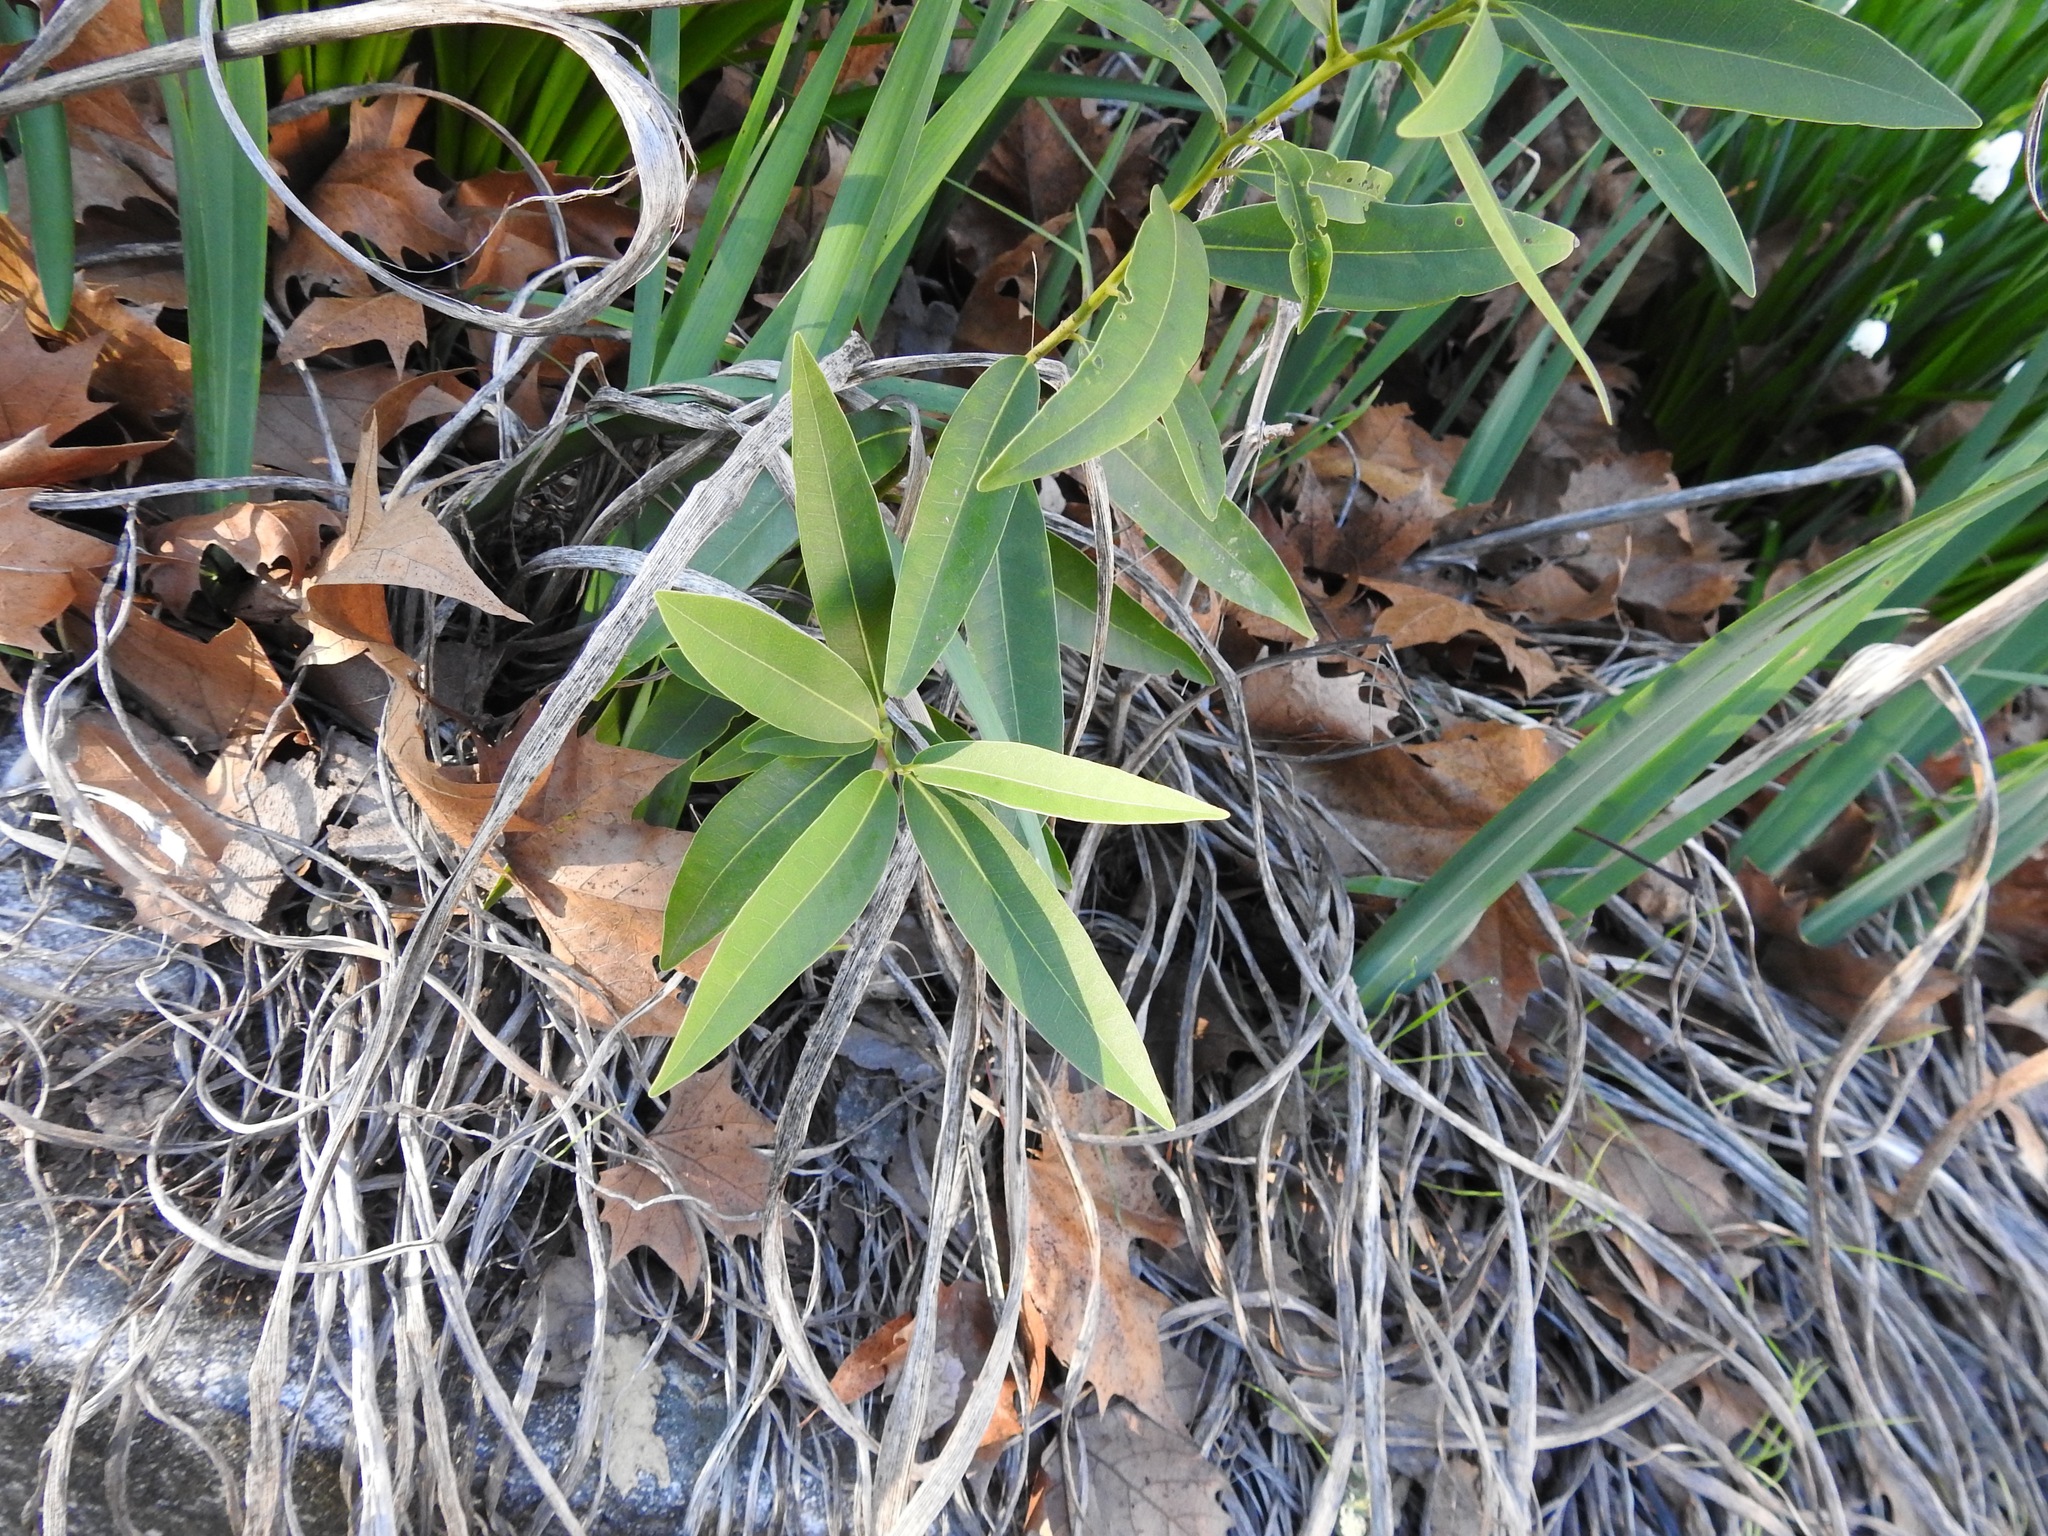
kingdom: Plantae
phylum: Tracheophyta
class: Magnoliopsida
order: Laurales
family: Lauraceae
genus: Umbellularia
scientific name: Umbellularia californica
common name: California bay
